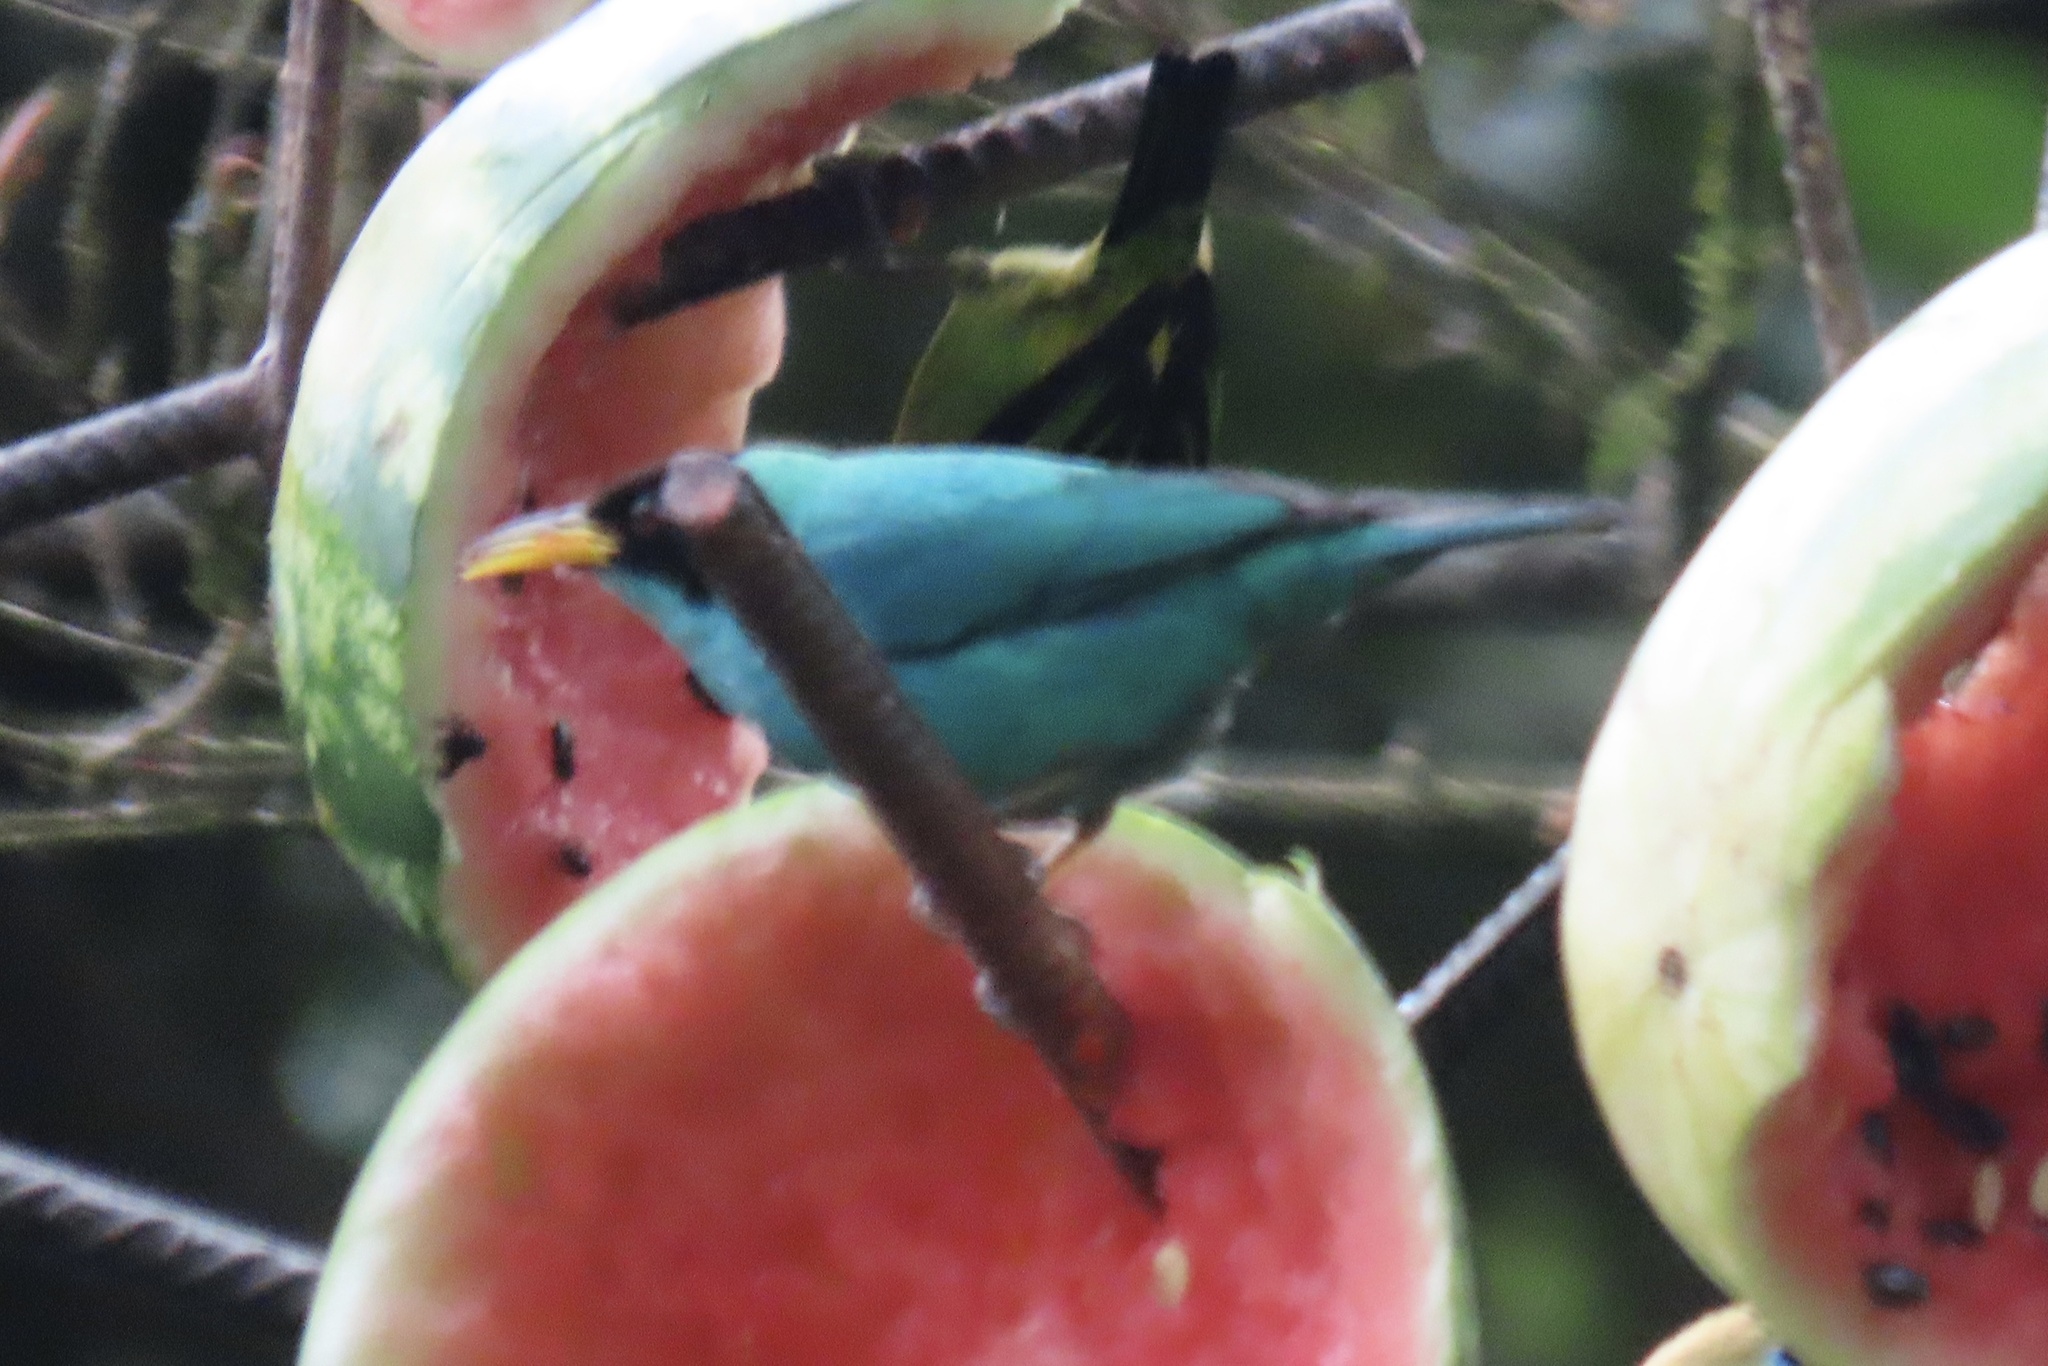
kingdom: Animalia
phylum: Chordata
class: Aves
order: Passeriformes
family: Thraupidae
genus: Chlorophanes
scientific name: Chlorophanes spiza
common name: Green honeycreeper
